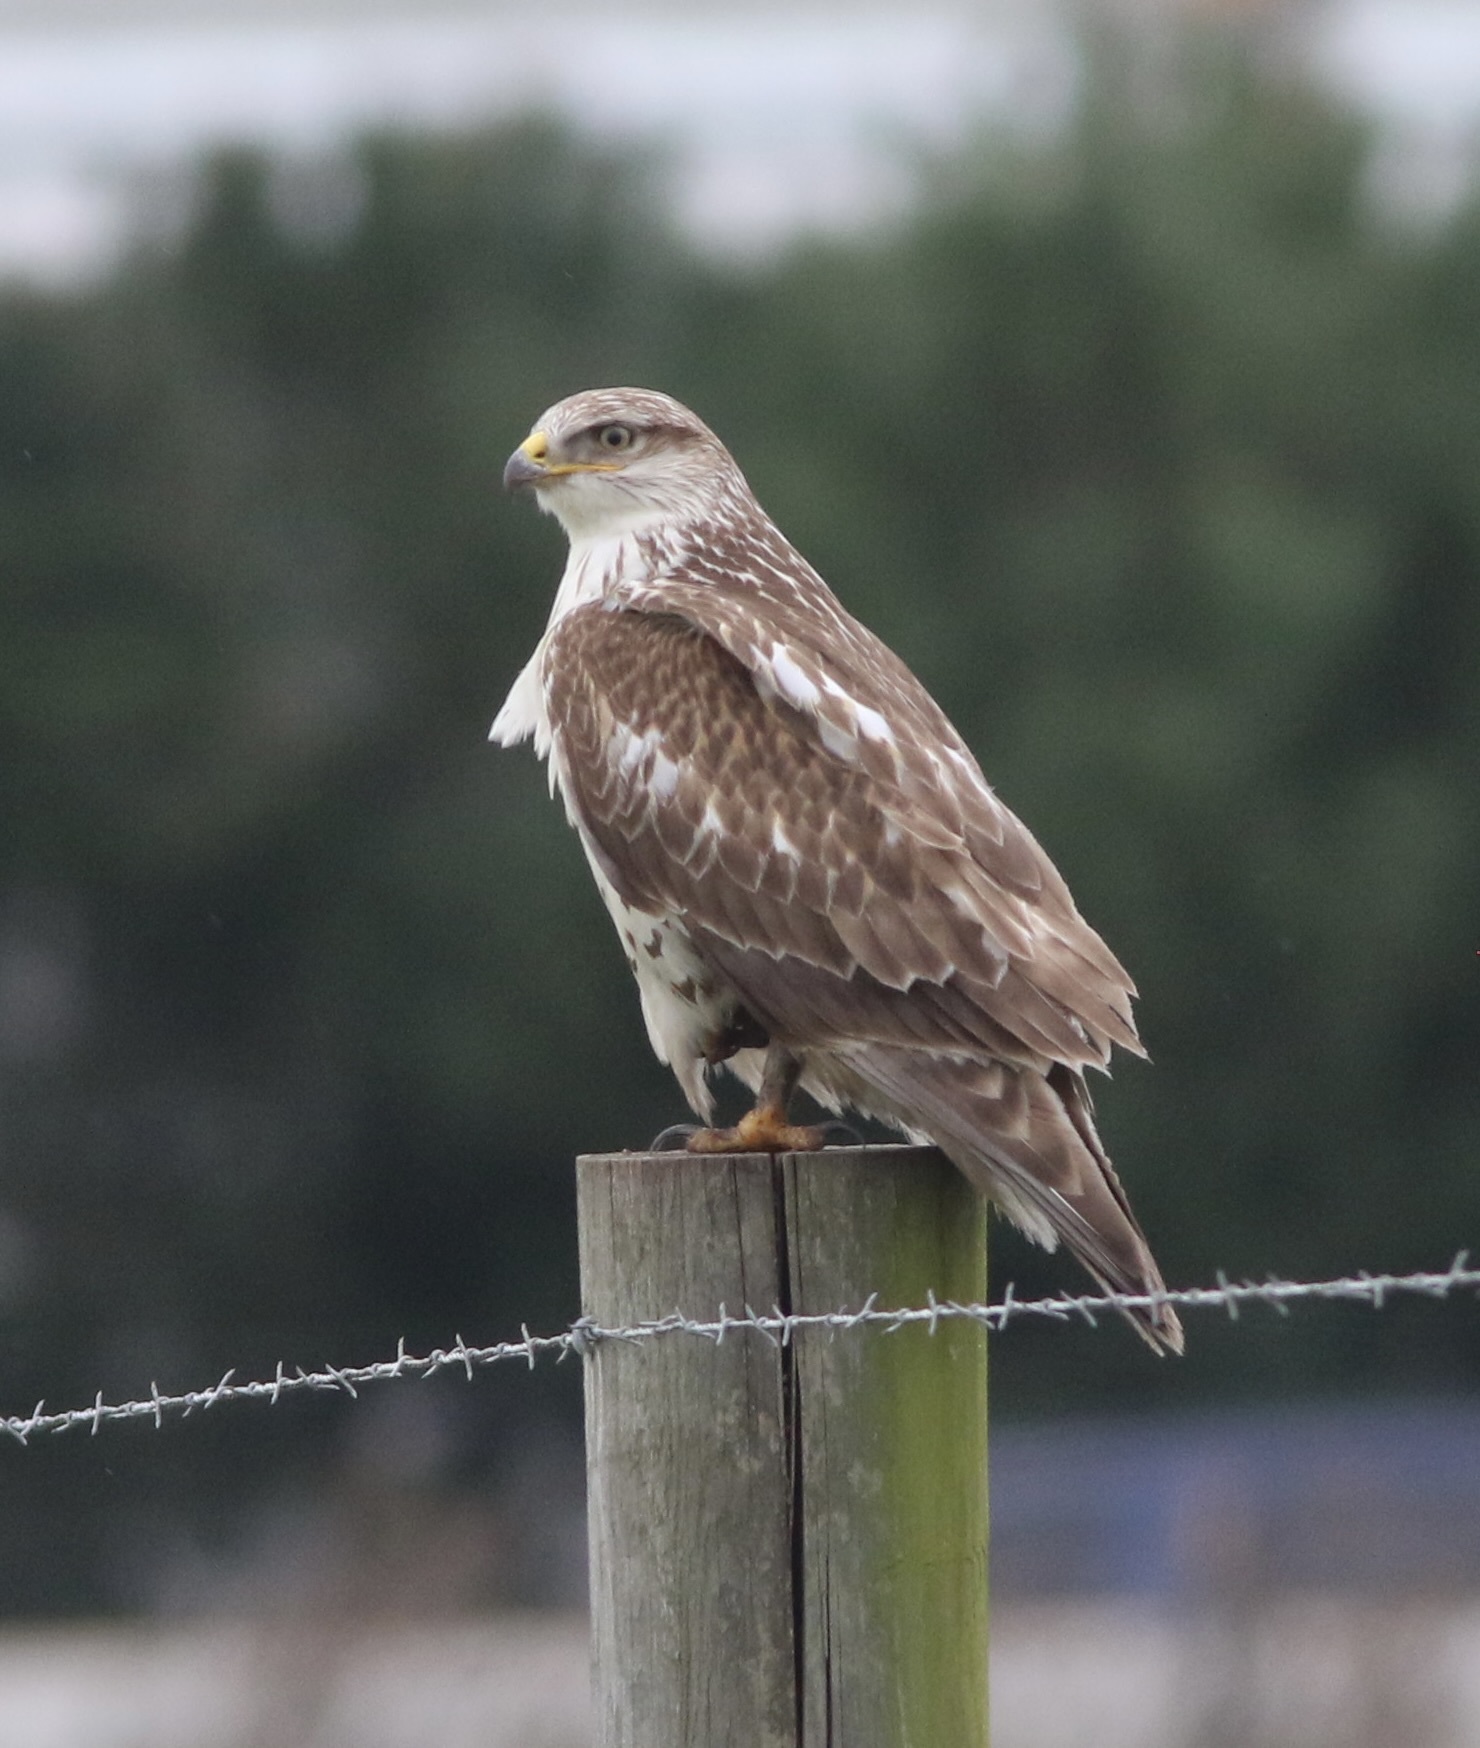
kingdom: Animalia
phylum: Chordata
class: Aves
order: Accipitriformes
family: Accipitridae
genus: Buteo
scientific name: Buteo regalis
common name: Ferruginous hawk
